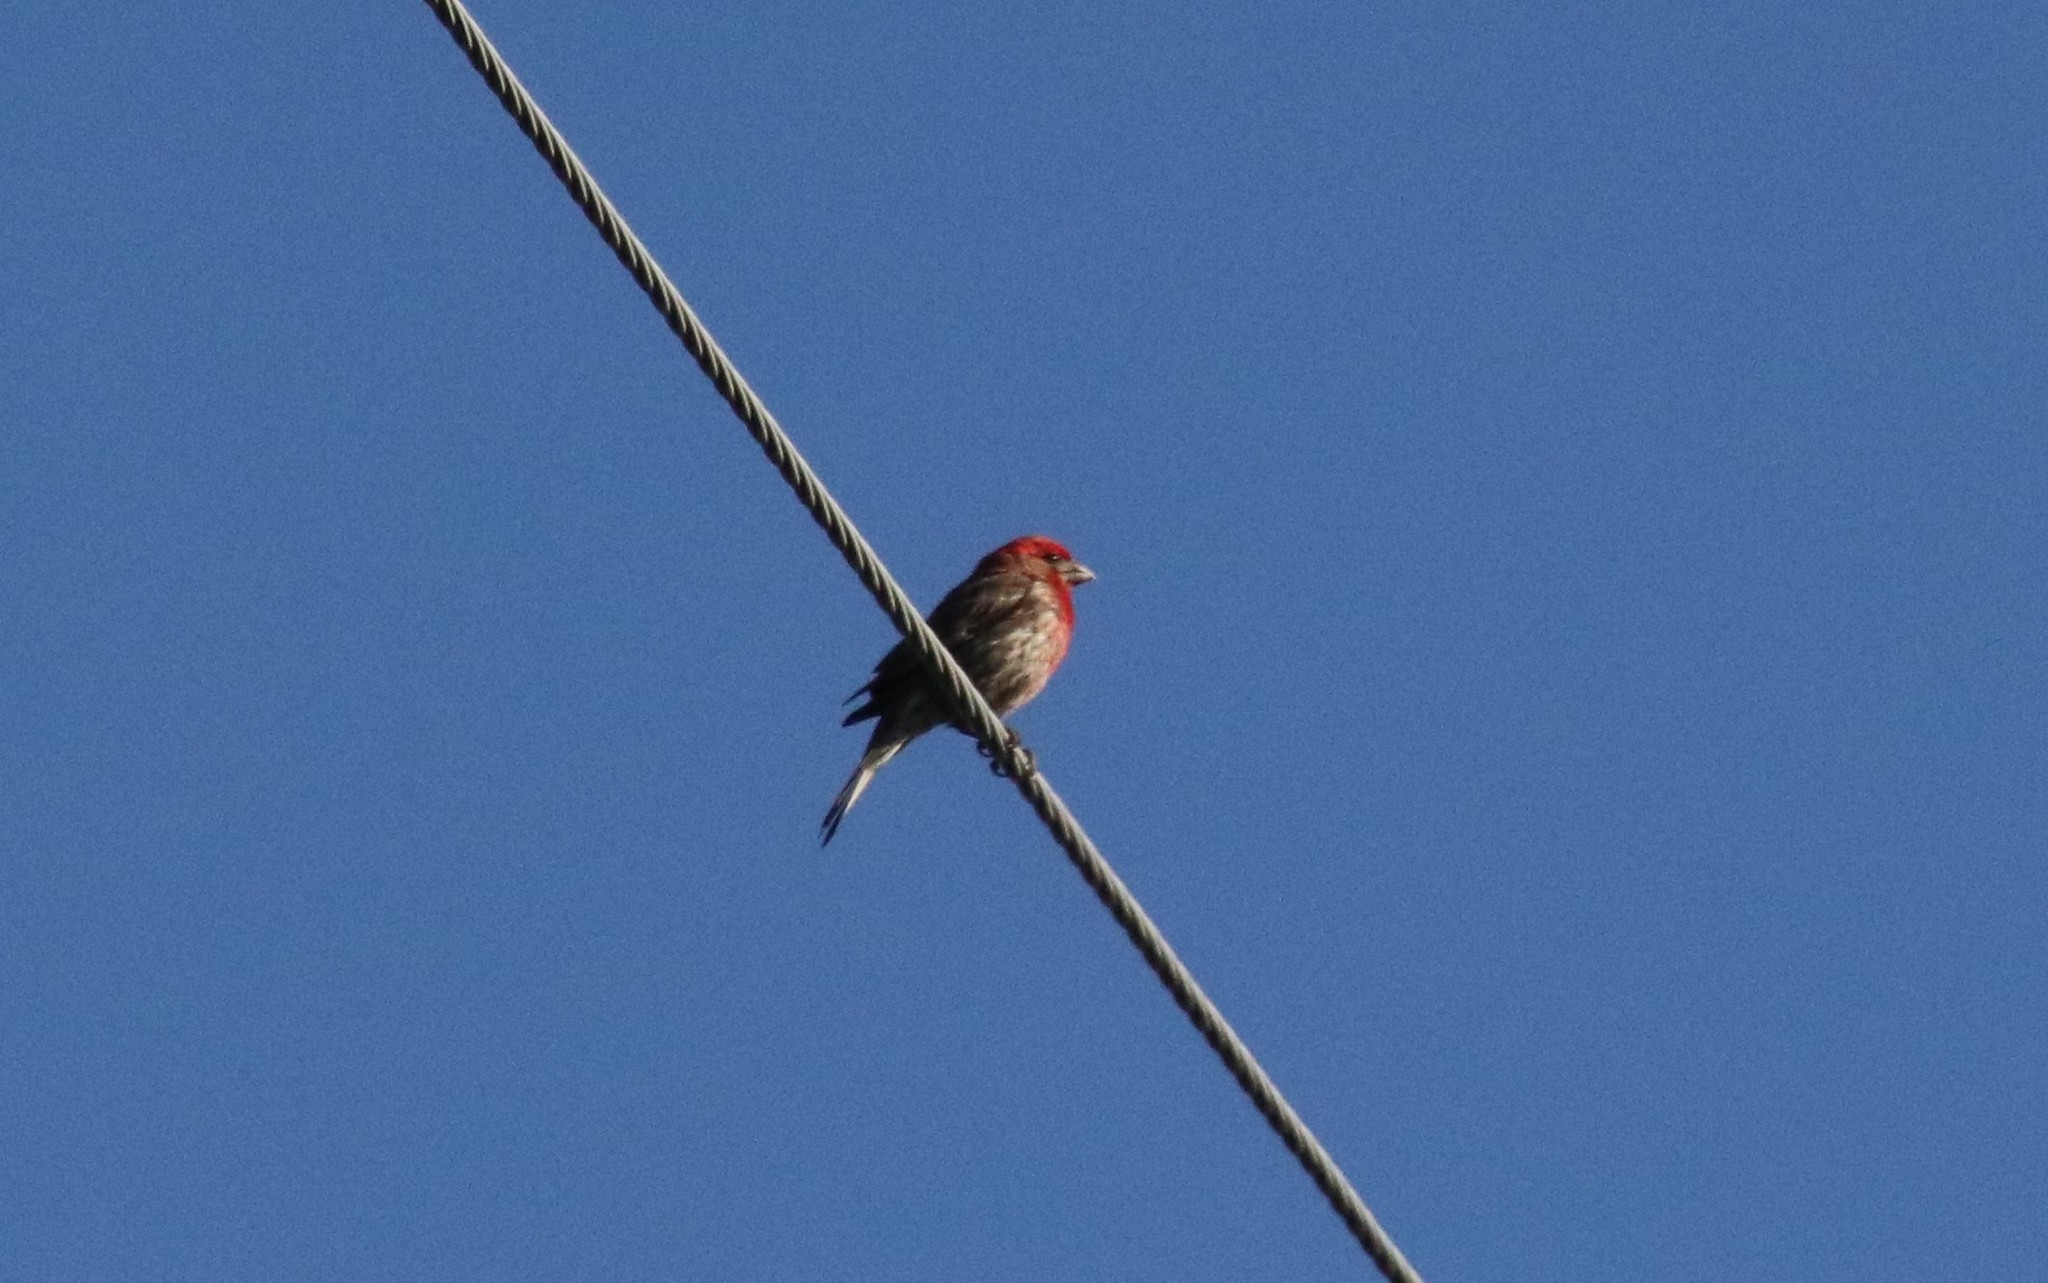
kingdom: Animalia
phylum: Chordata
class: Aves
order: Passeriformes
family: Fringillidae
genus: Haemorhous
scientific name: Haemorhous mexicanus
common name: House finch
